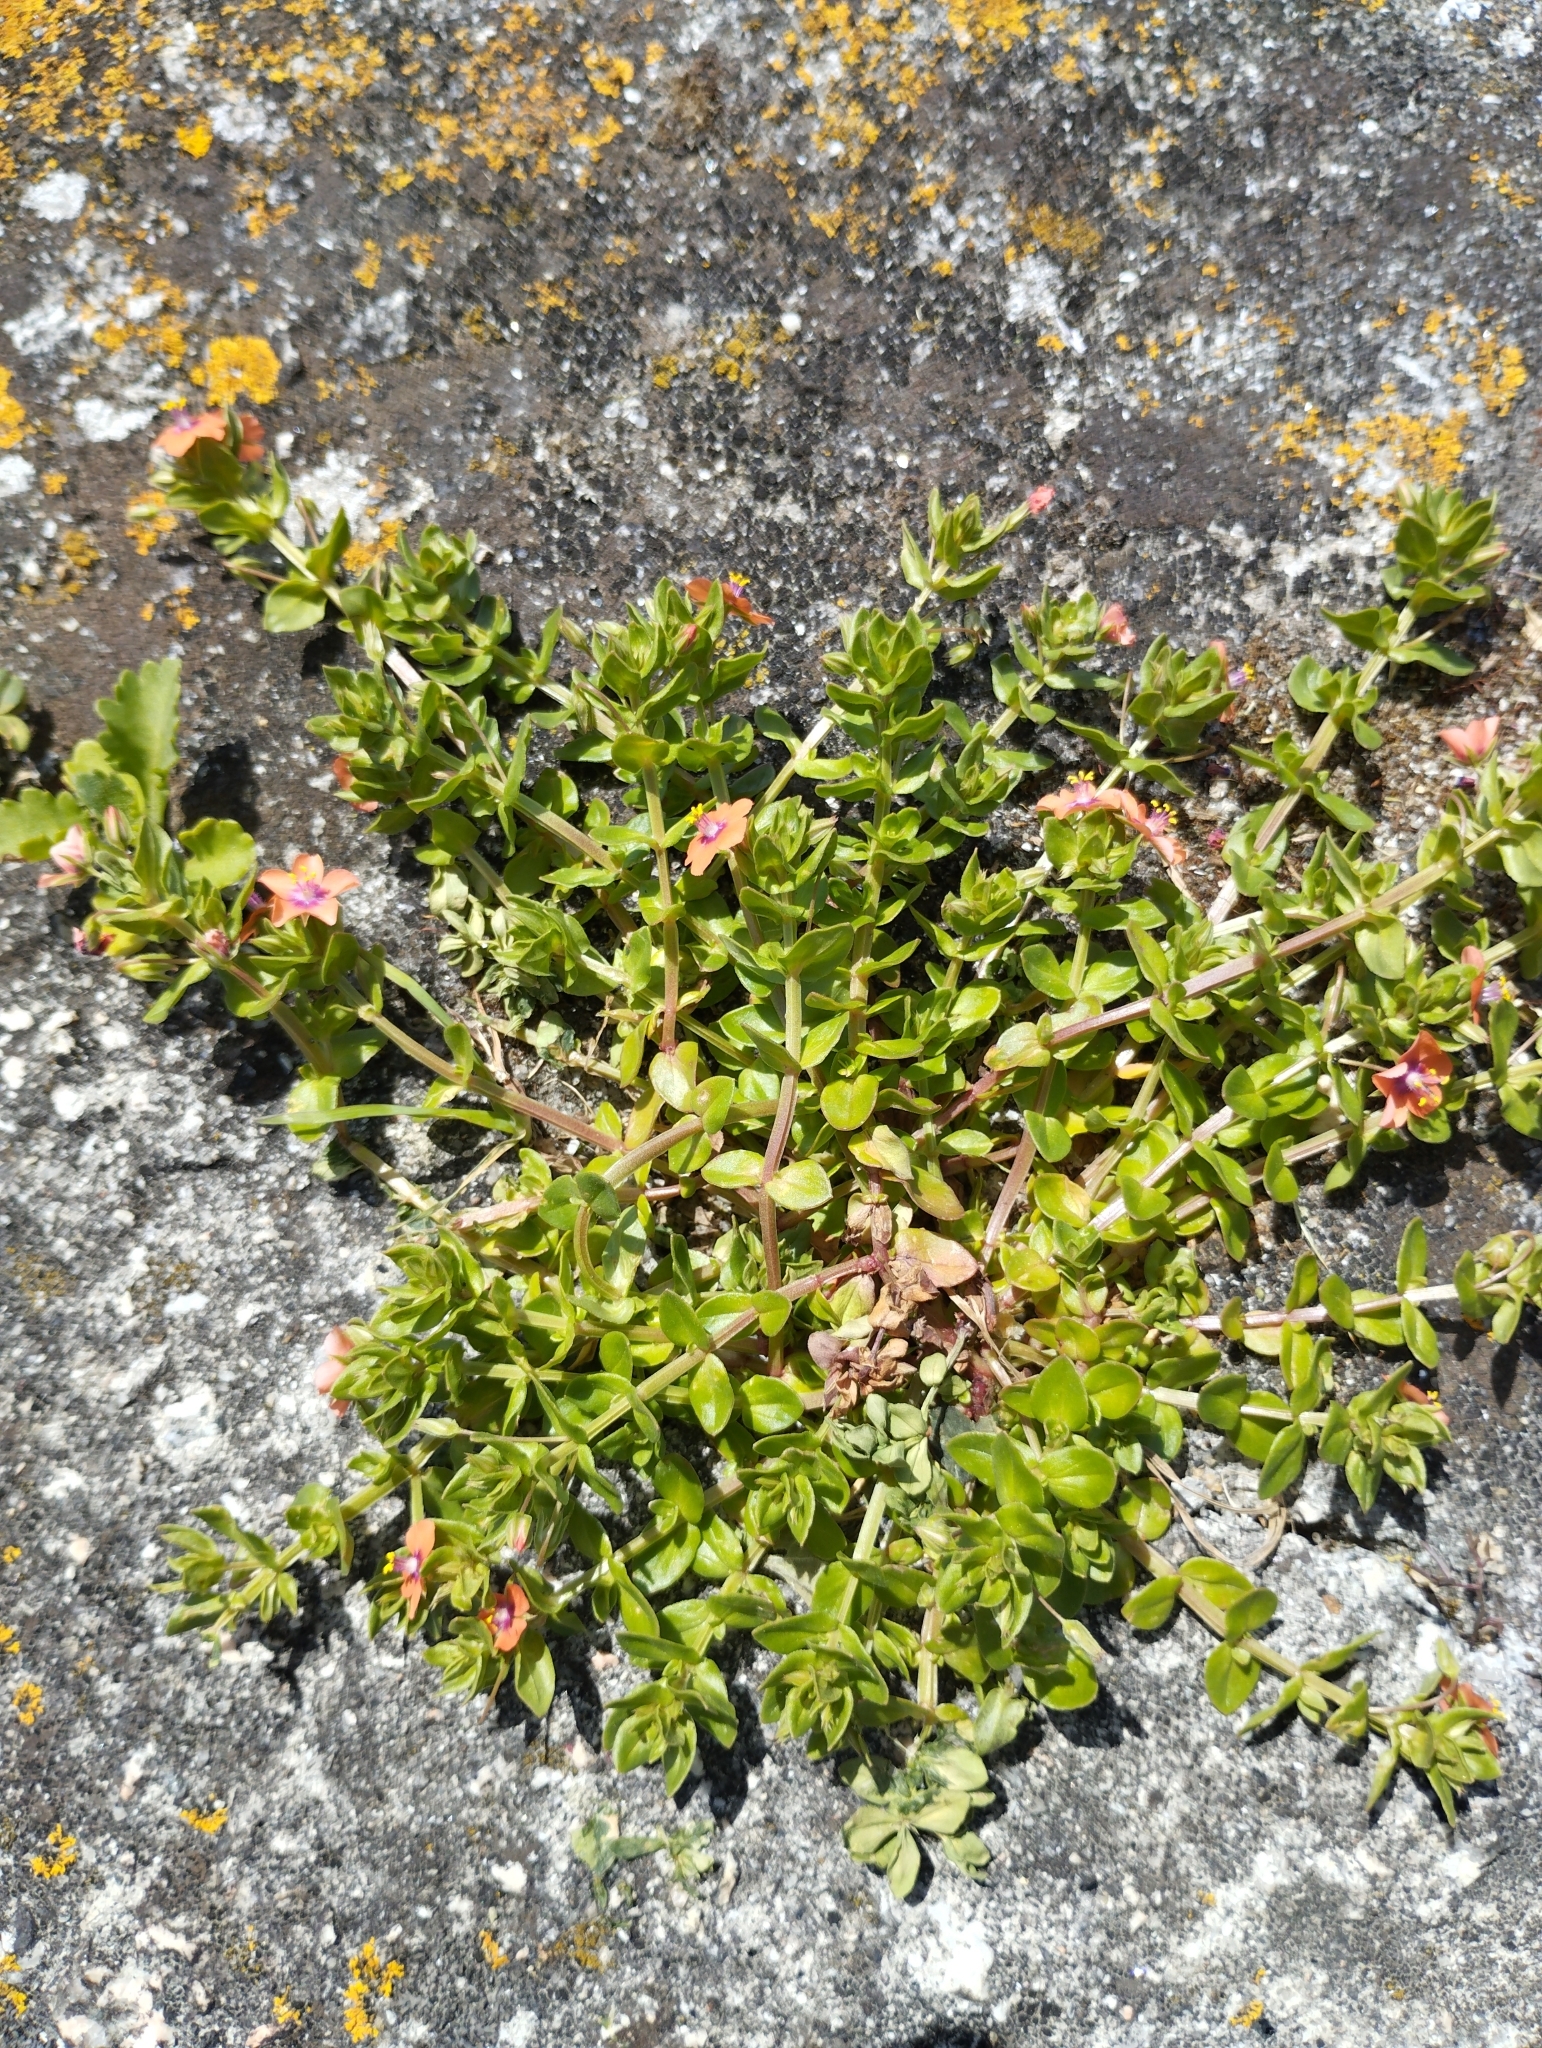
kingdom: Plantae
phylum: Tracheophyta
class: Magnoliopsida
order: Ericales
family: Primulaceae
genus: Lysimachia
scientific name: Lysimachia arvensis
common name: Scarlet pimpernel
